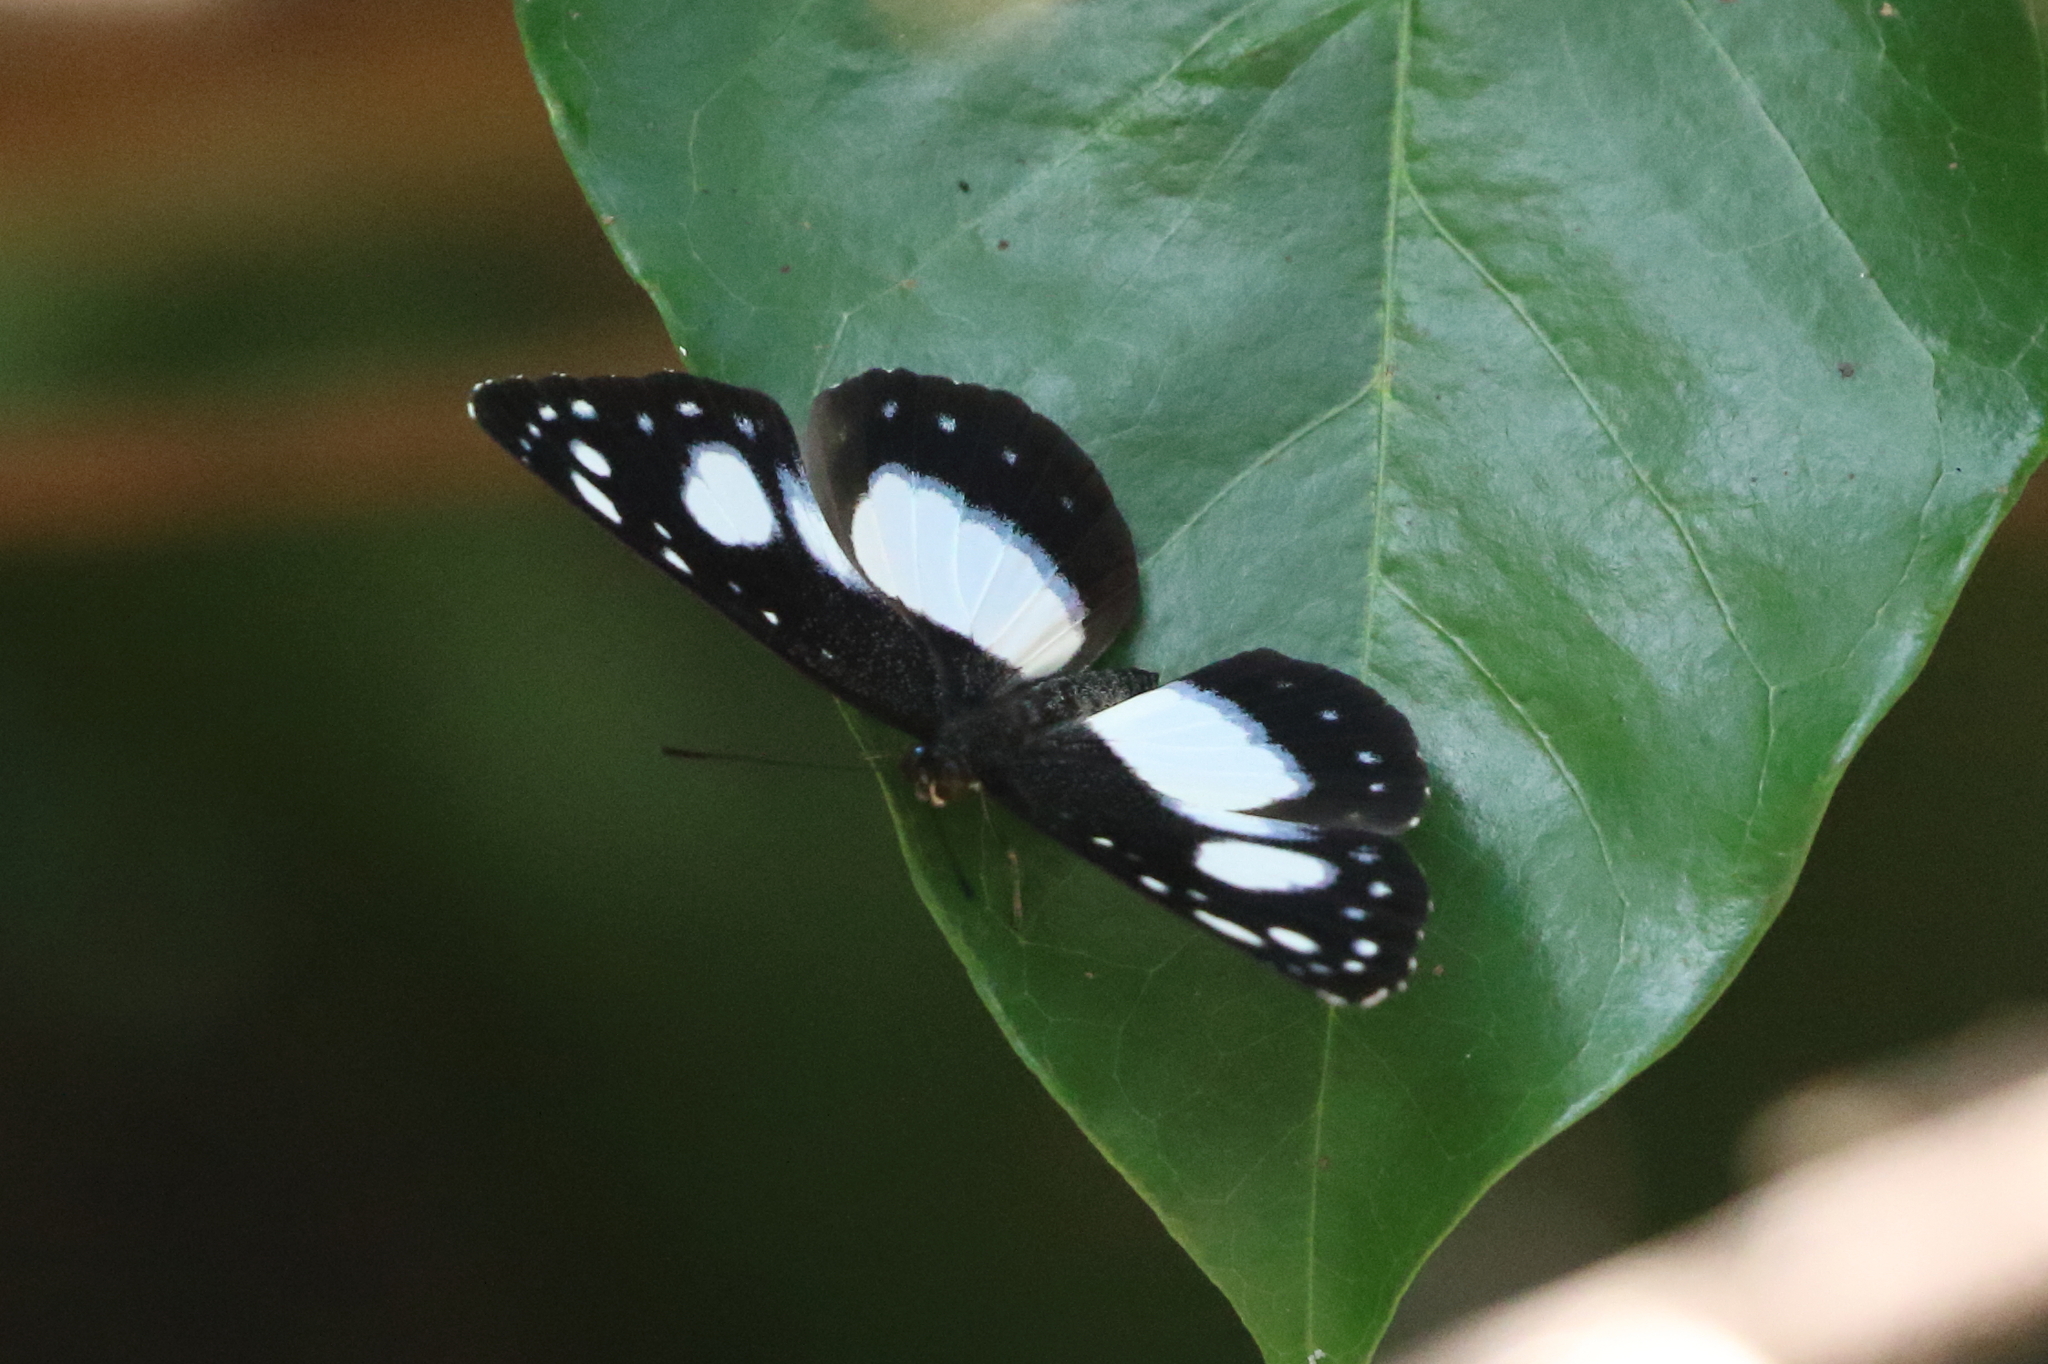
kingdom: Animalia
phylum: Arthropoda
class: Insecta
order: Lepidoptera
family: Nymphalidae
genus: Pantoporia
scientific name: Pantoporia venilia
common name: Cape york aeroplane
